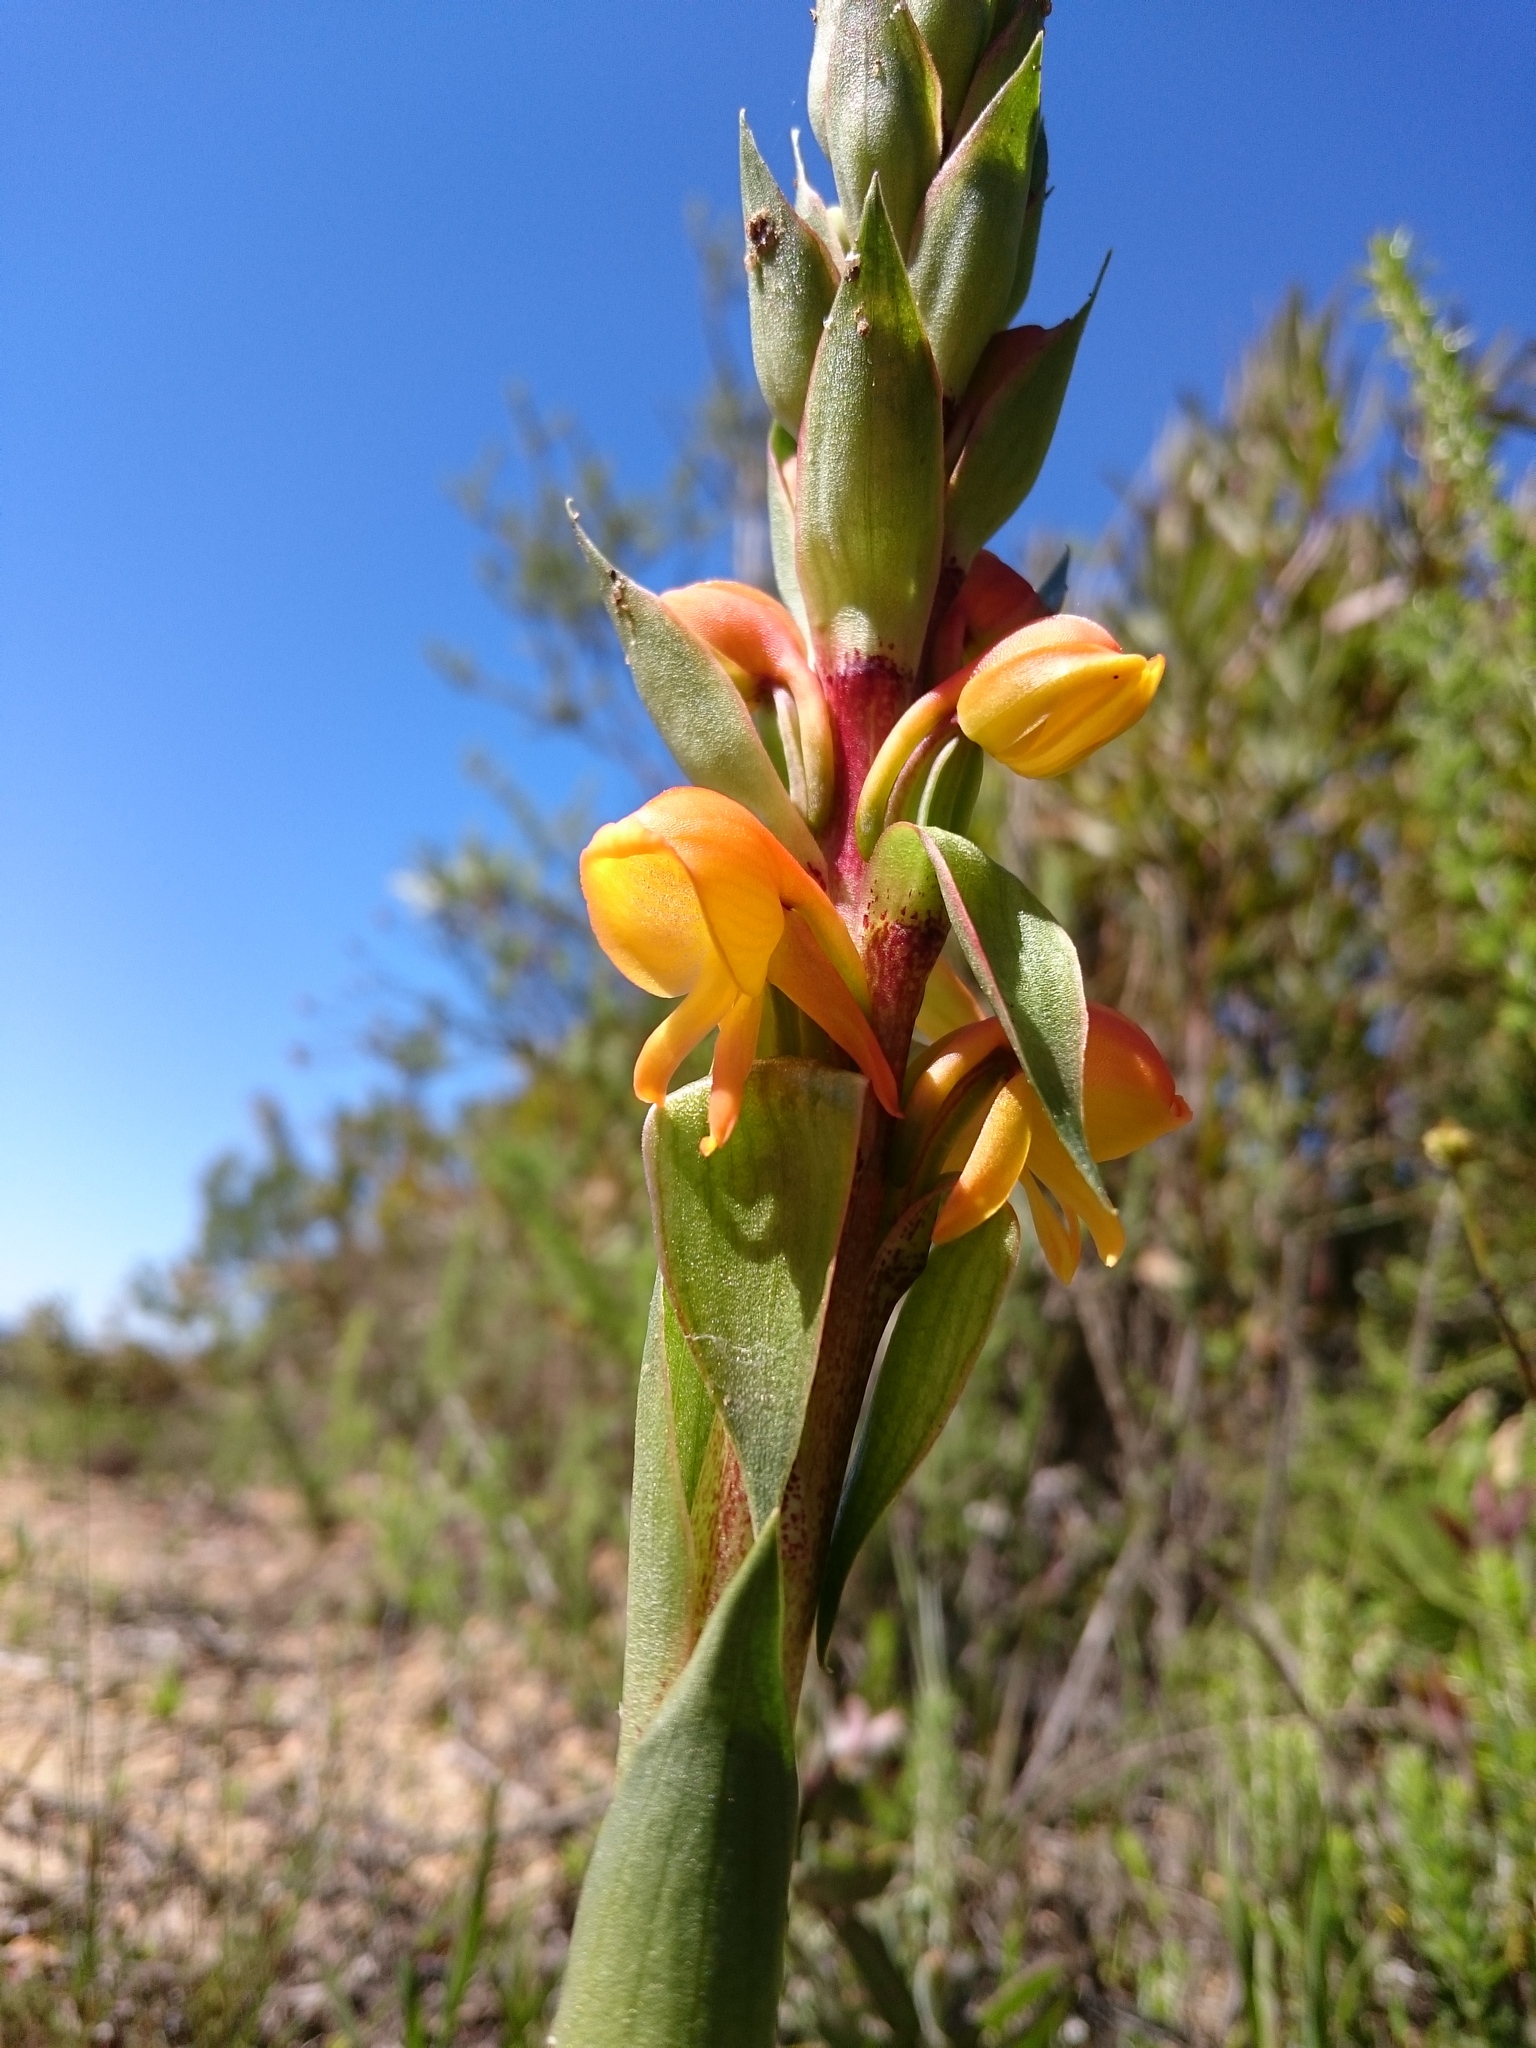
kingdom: Plantae
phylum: Tracheophyta
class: Liliopsida
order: Asparagales
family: Orchidaceae
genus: Satyrium
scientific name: Satyrium coriifolium
